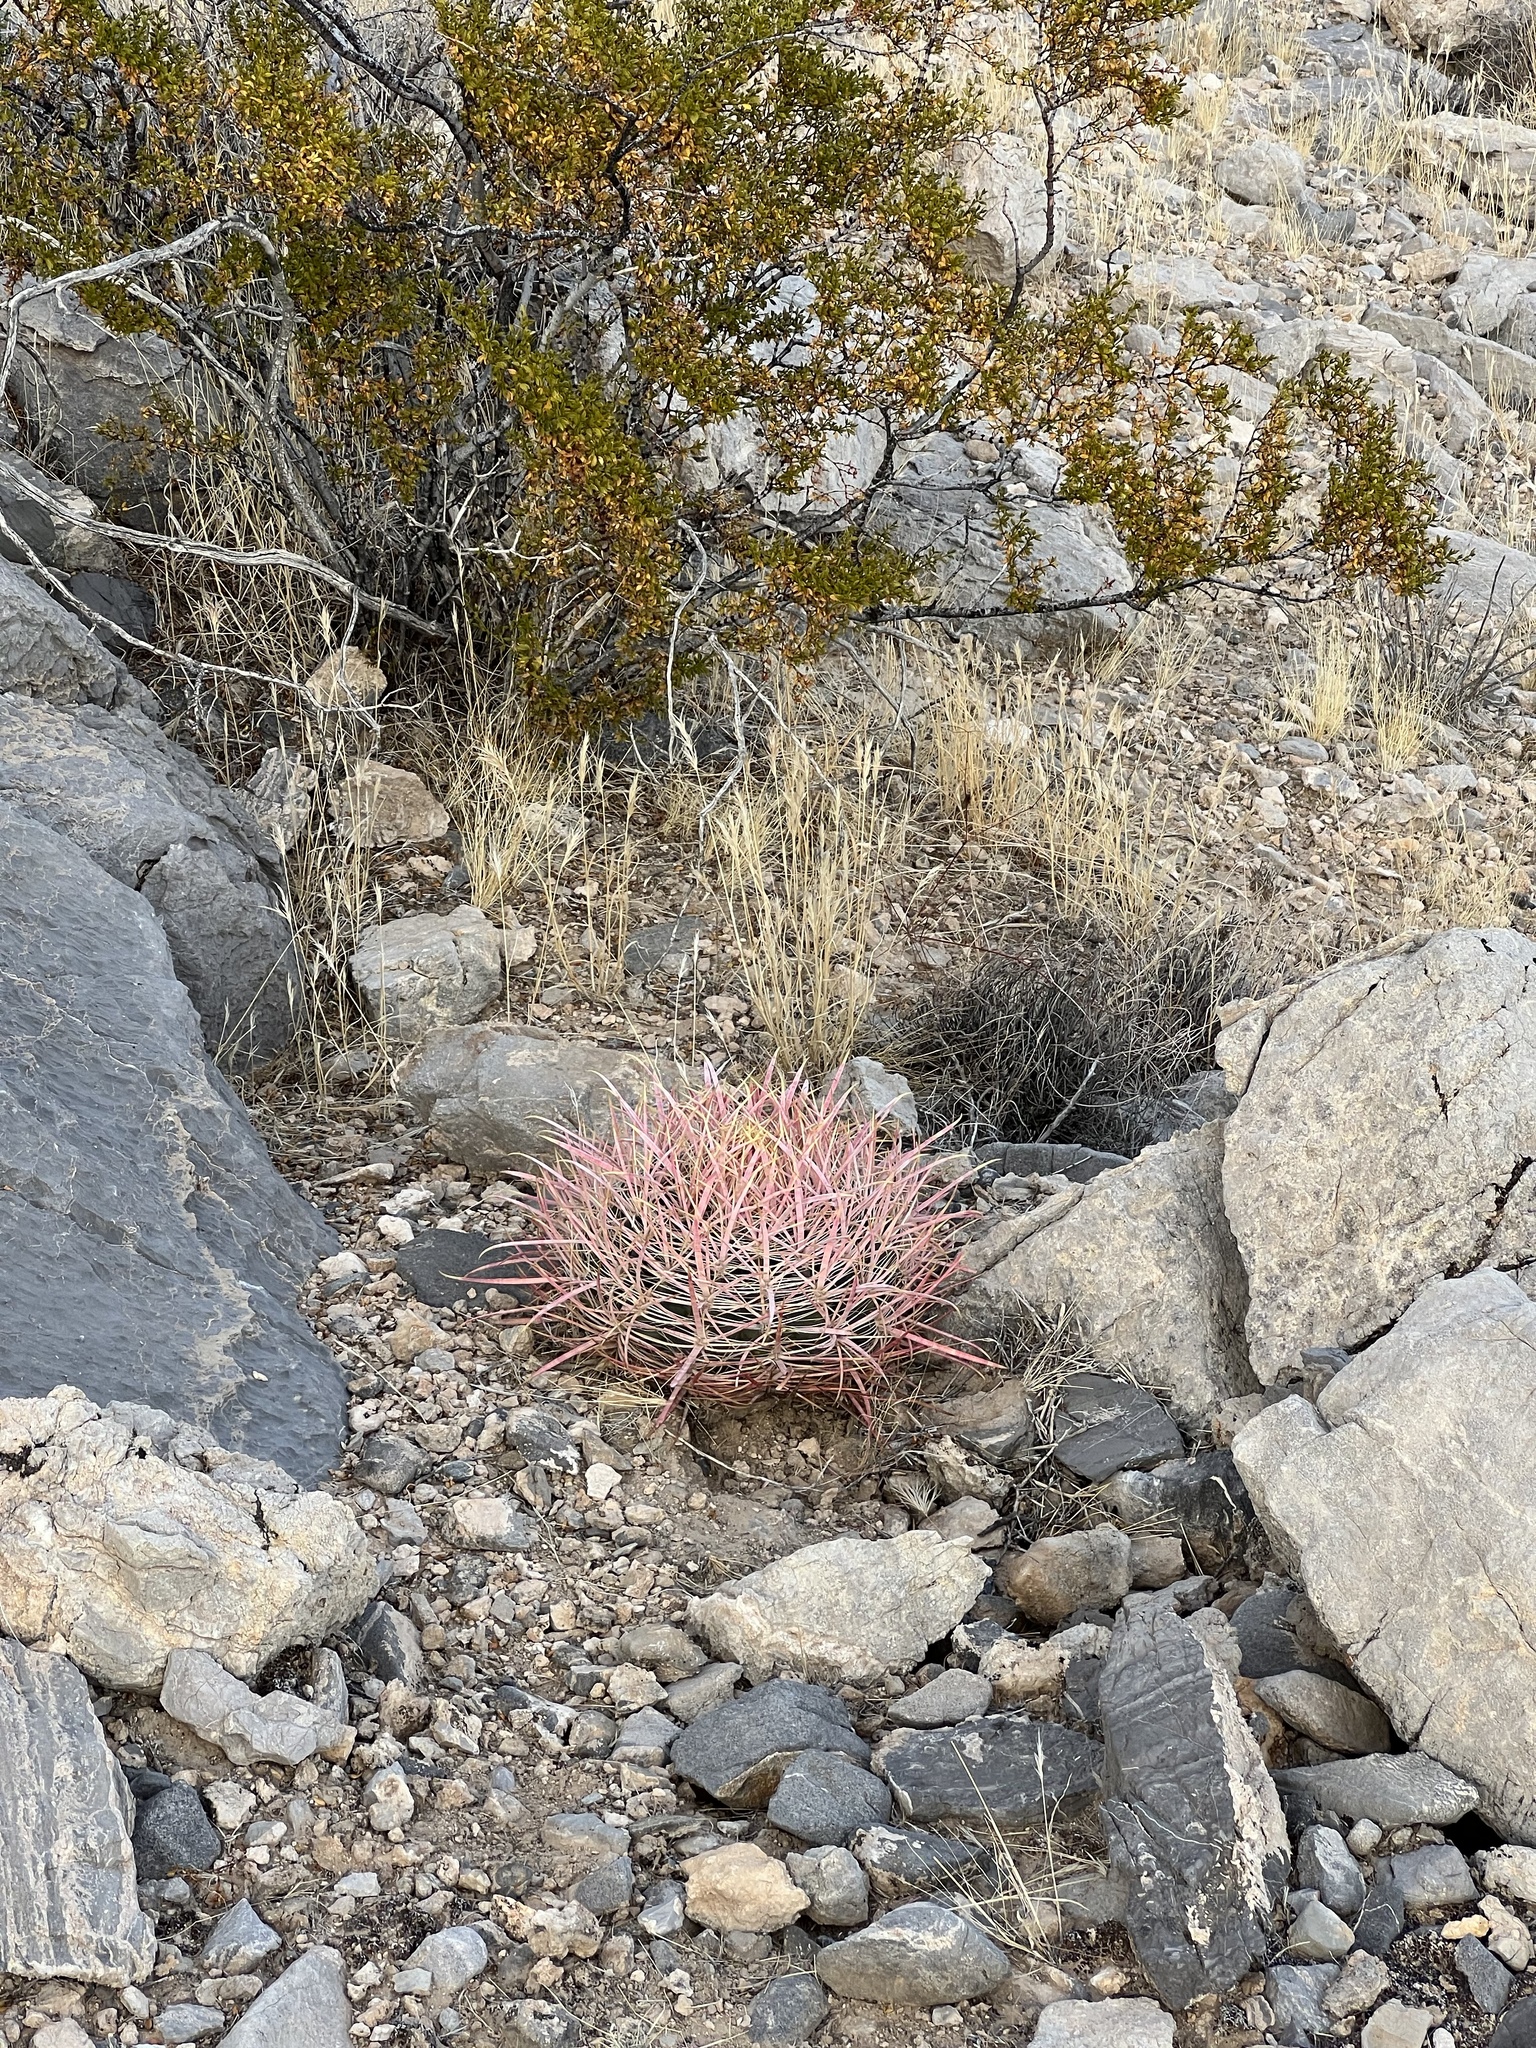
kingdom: Plantae
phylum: Tracheophyta
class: Magnoliopsida
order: Caryophyllales
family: Cactaceae
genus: Ferocactus
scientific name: Ferocactus cylindraceus
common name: California barrel cactus
